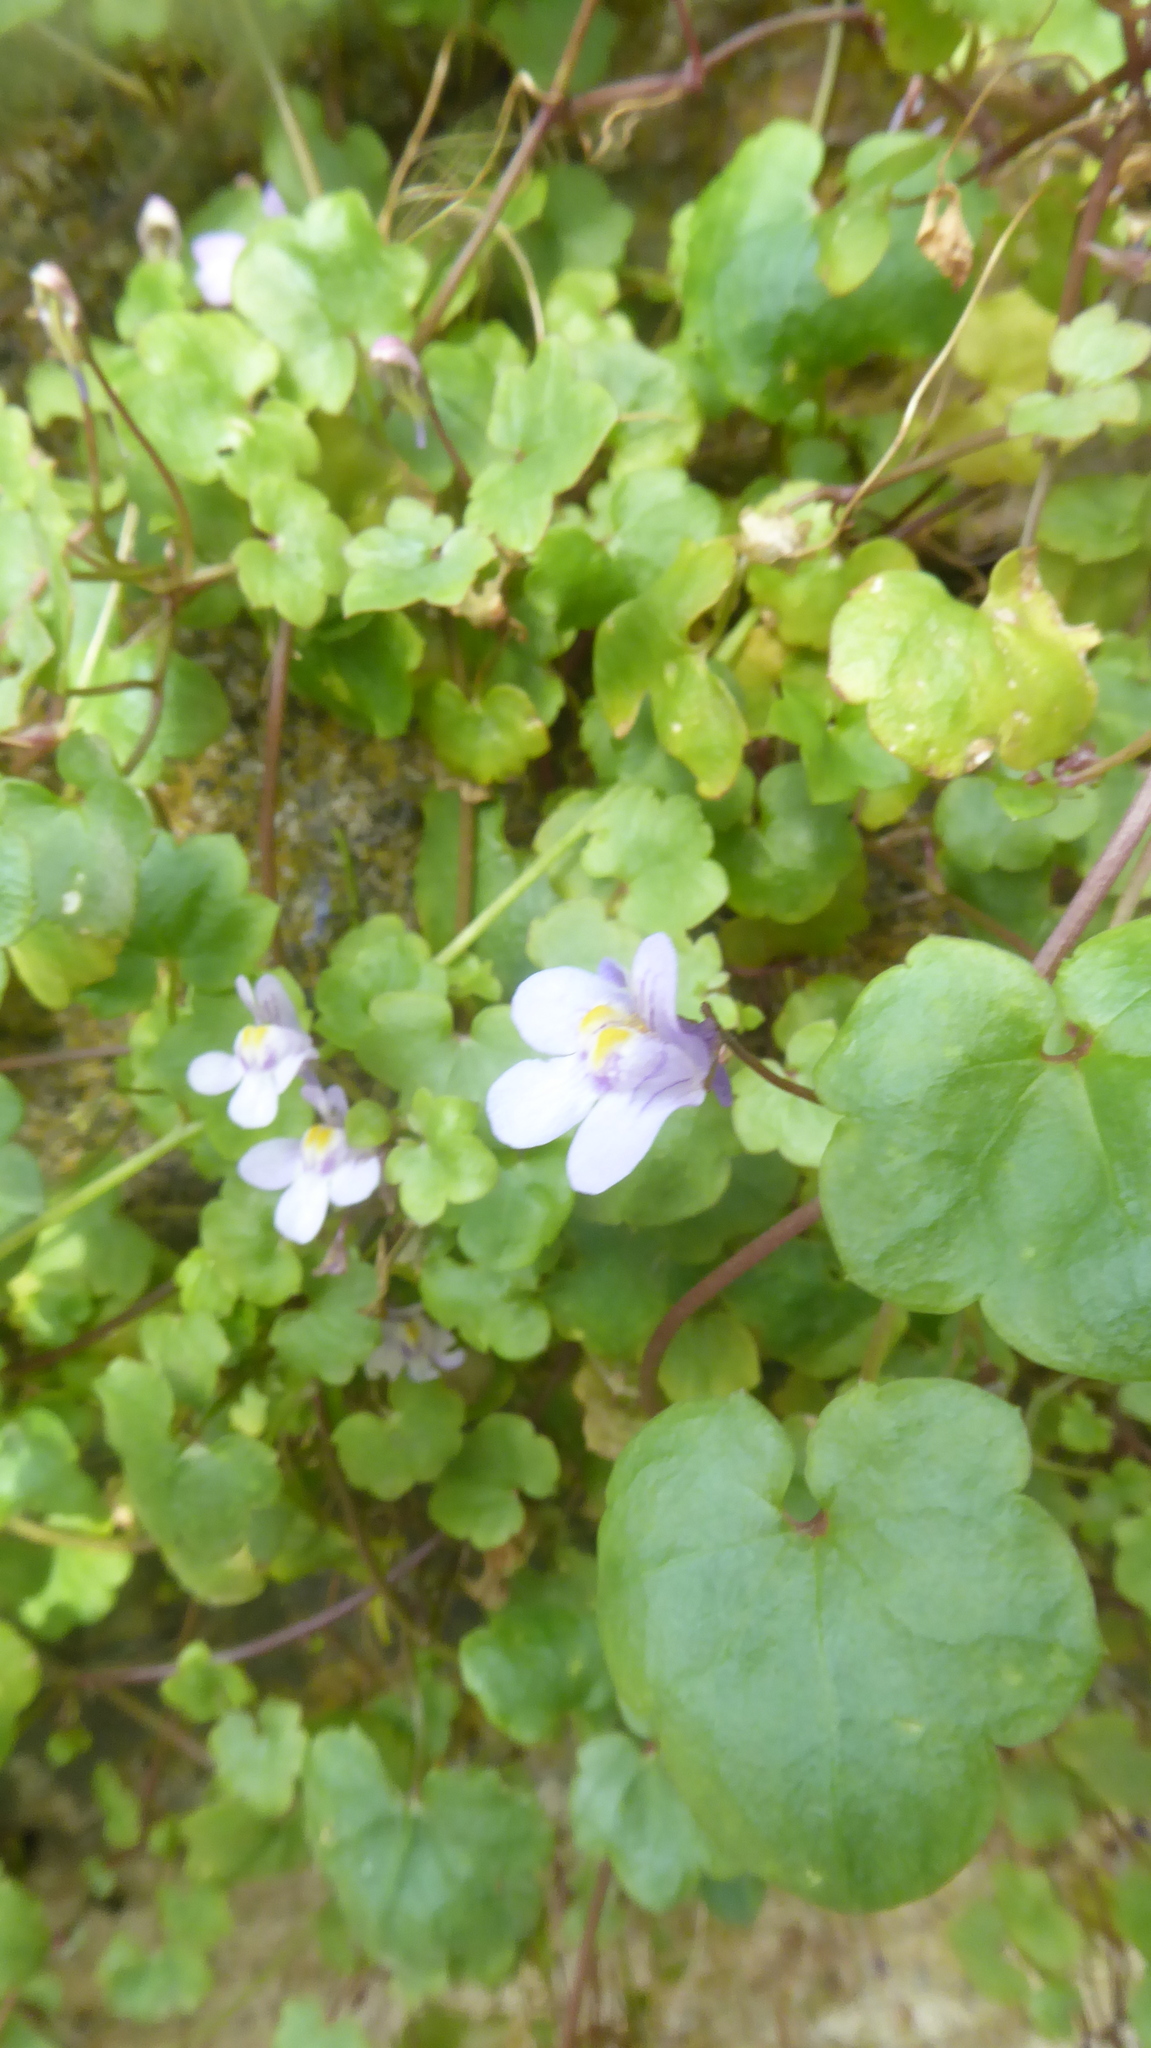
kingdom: Plantae
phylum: Tracheophyta
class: Magnoliopsida
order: Lamiales
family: Plantaginaceae
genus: Cymbalaria
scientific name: Cymbalaria muralis
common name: Ivy-leaved toadflax
